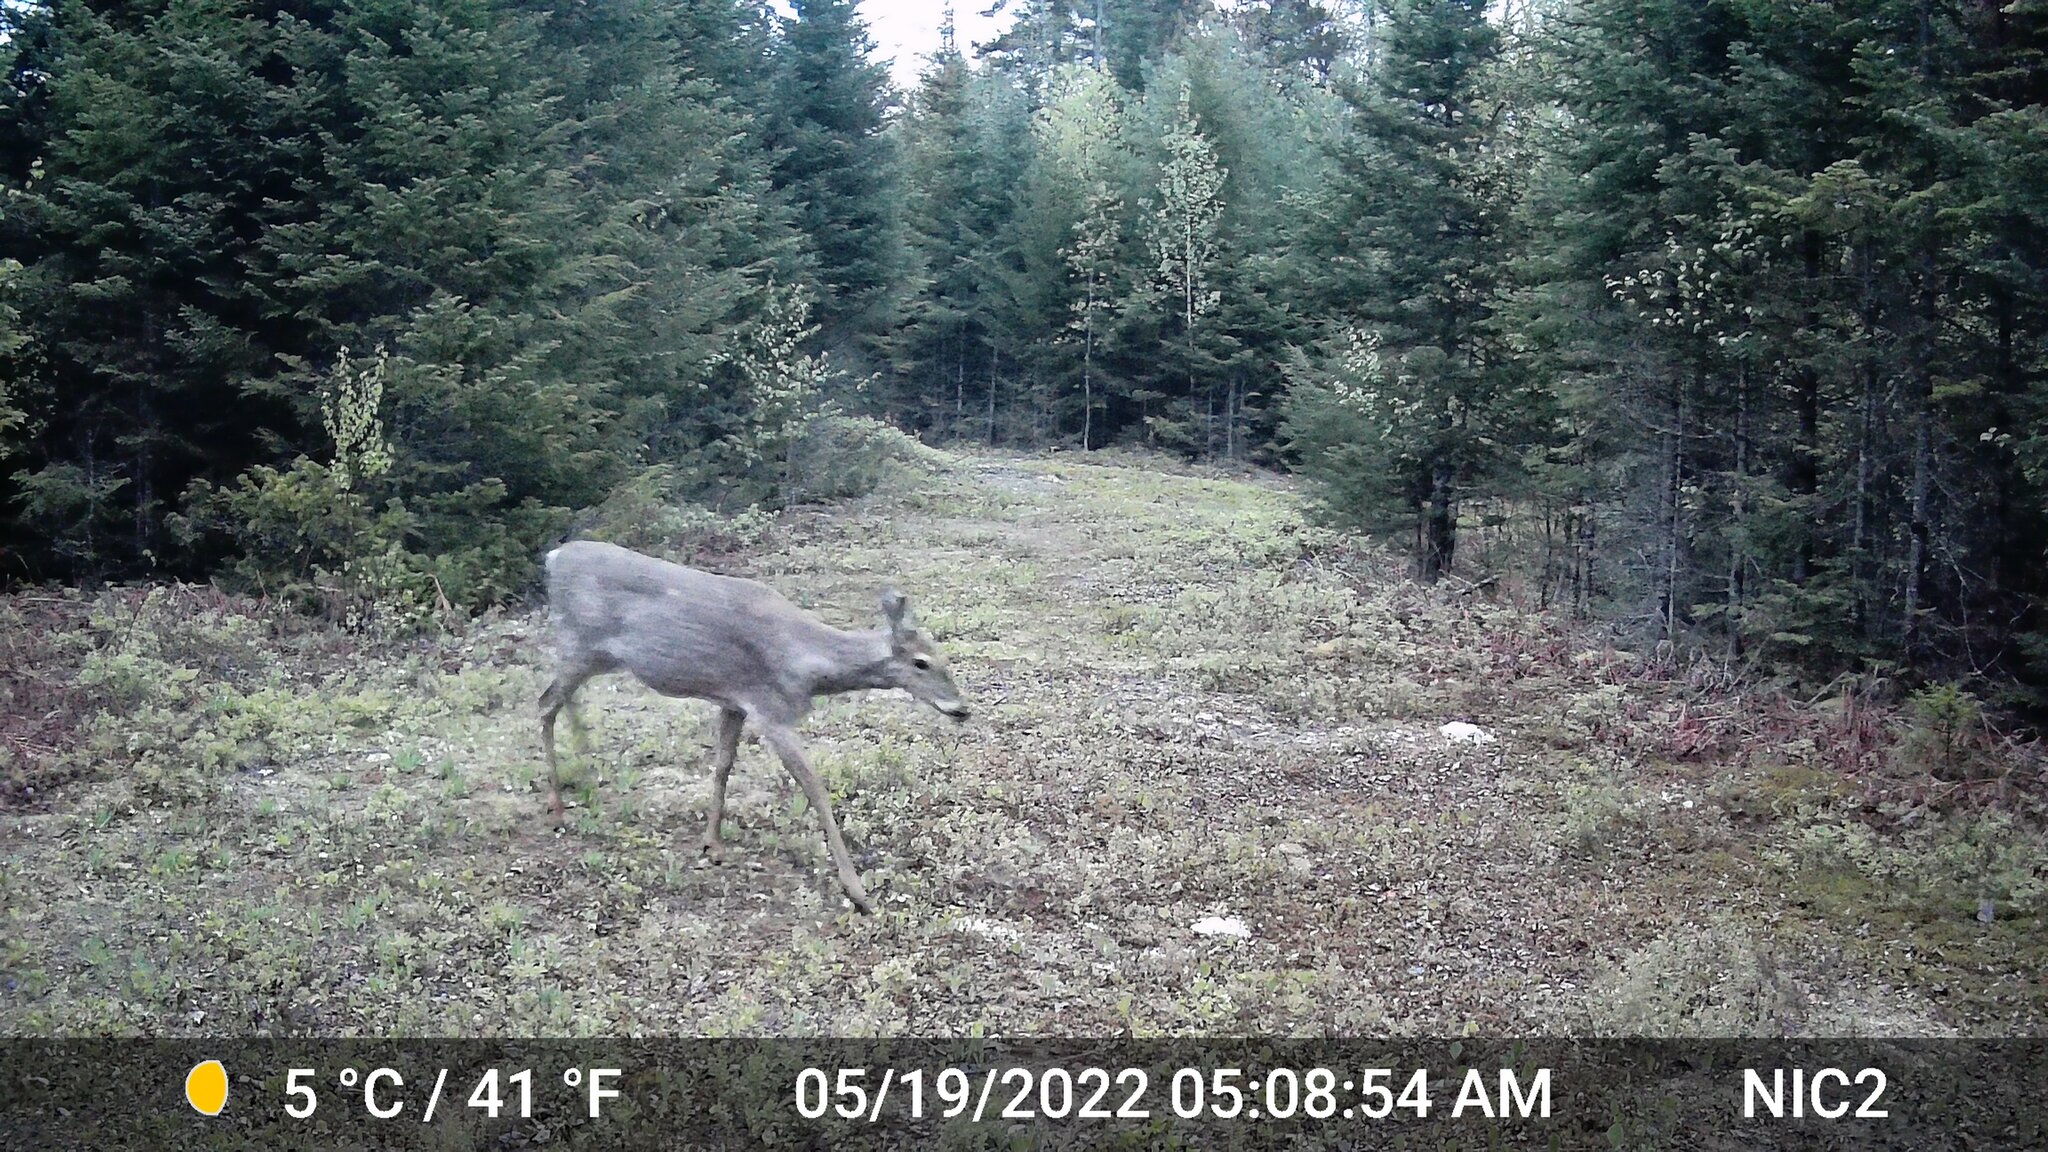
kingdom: Animalia
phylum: Chordata
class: Mammalia
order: Artiodactyla
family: Cervidae
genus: Odocoileus
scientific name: Odocoileus virginianus
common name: White-tailed deer
